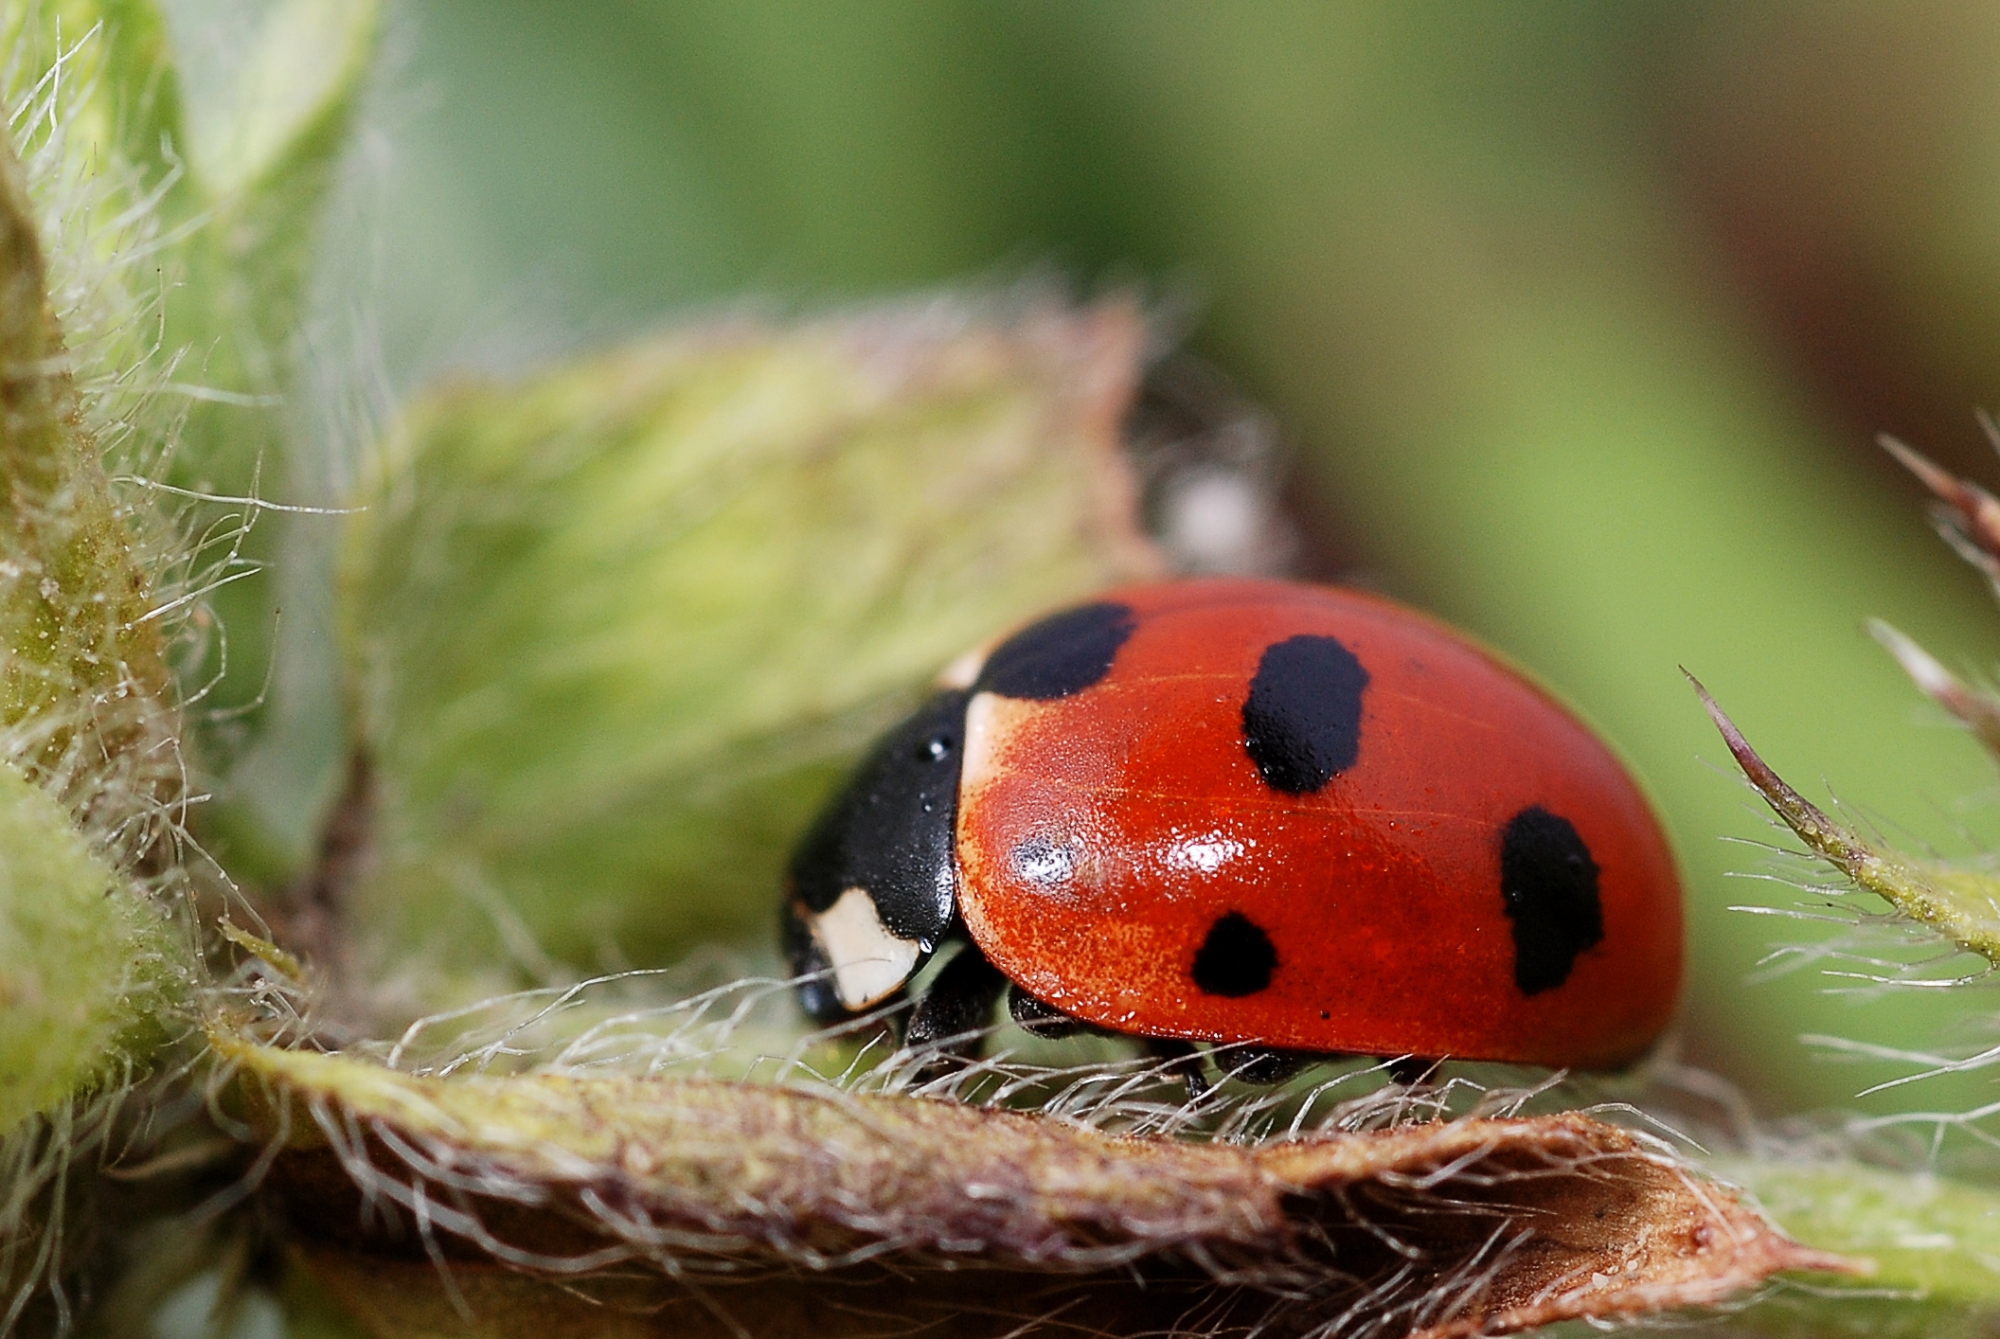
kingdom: Animalia
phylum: Arthropoda
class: Insecta
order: Coleoptera
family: Coccinellidae
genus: Coccinella
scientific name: Coccinella magnifica
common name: Scarce 7-spot ladybird
